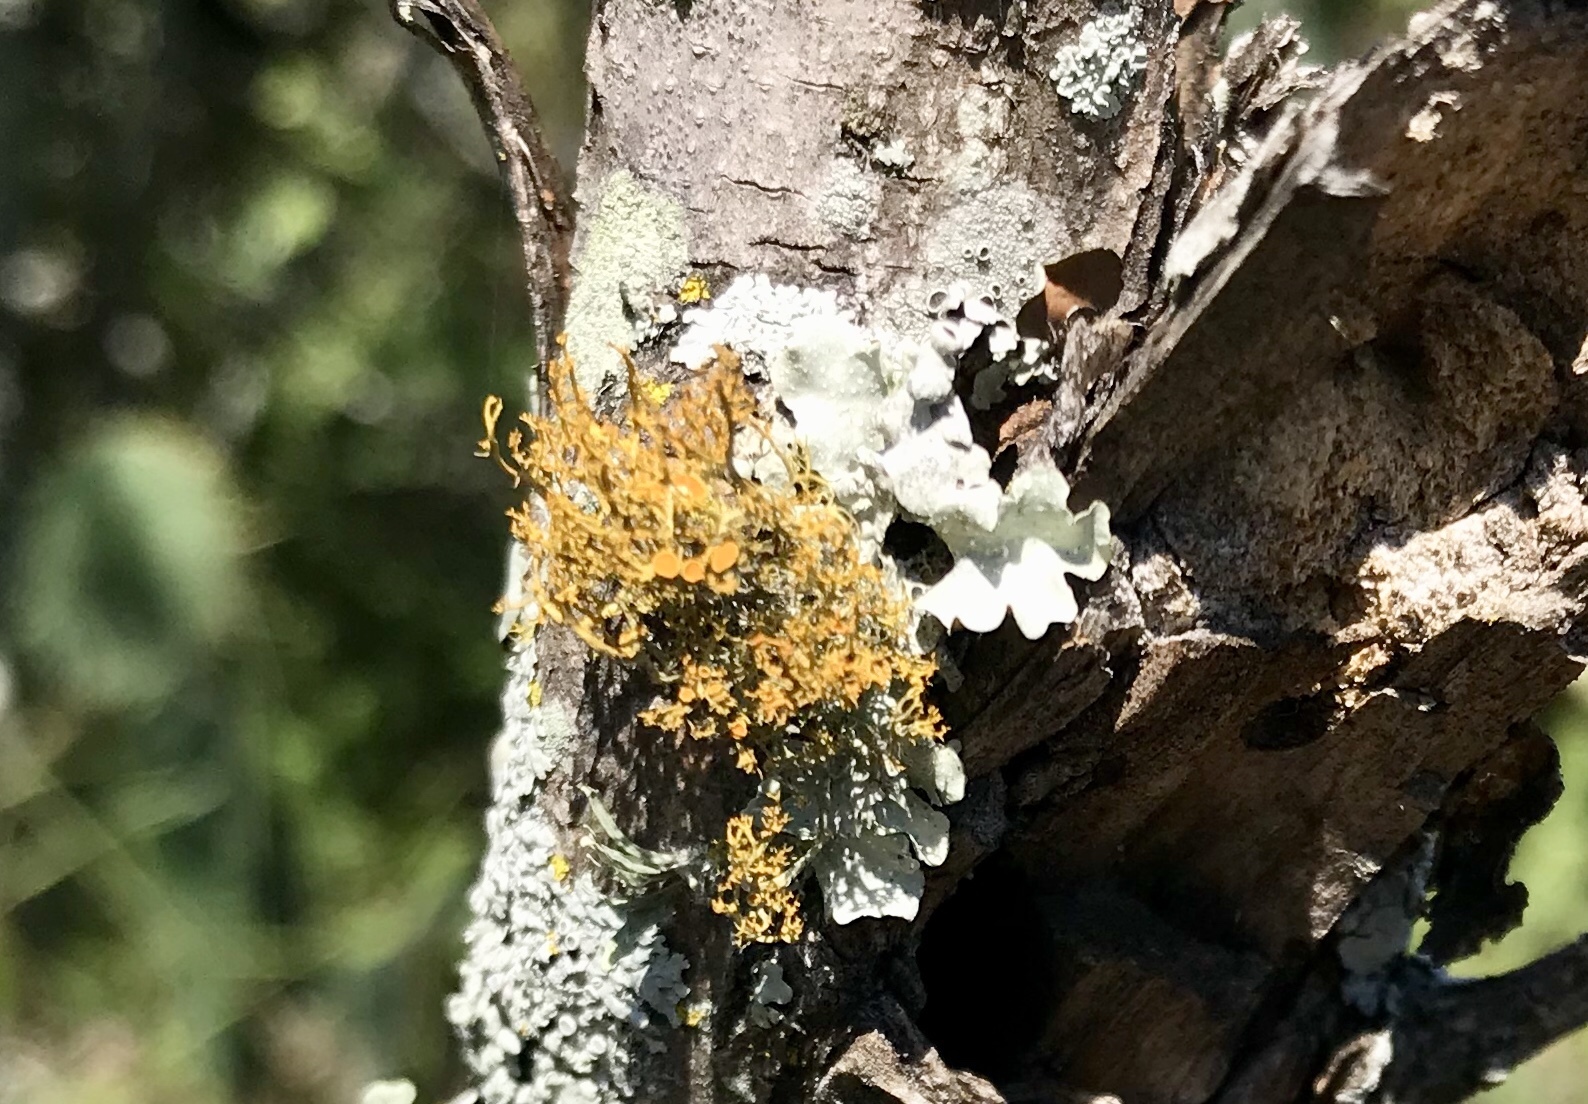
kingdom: Fungi
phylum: Ascomycota
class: Lecanoromycetes
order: Teloschistales
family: Teloschistaceae
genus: Teloschistes
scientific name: Teloschistes exilis
